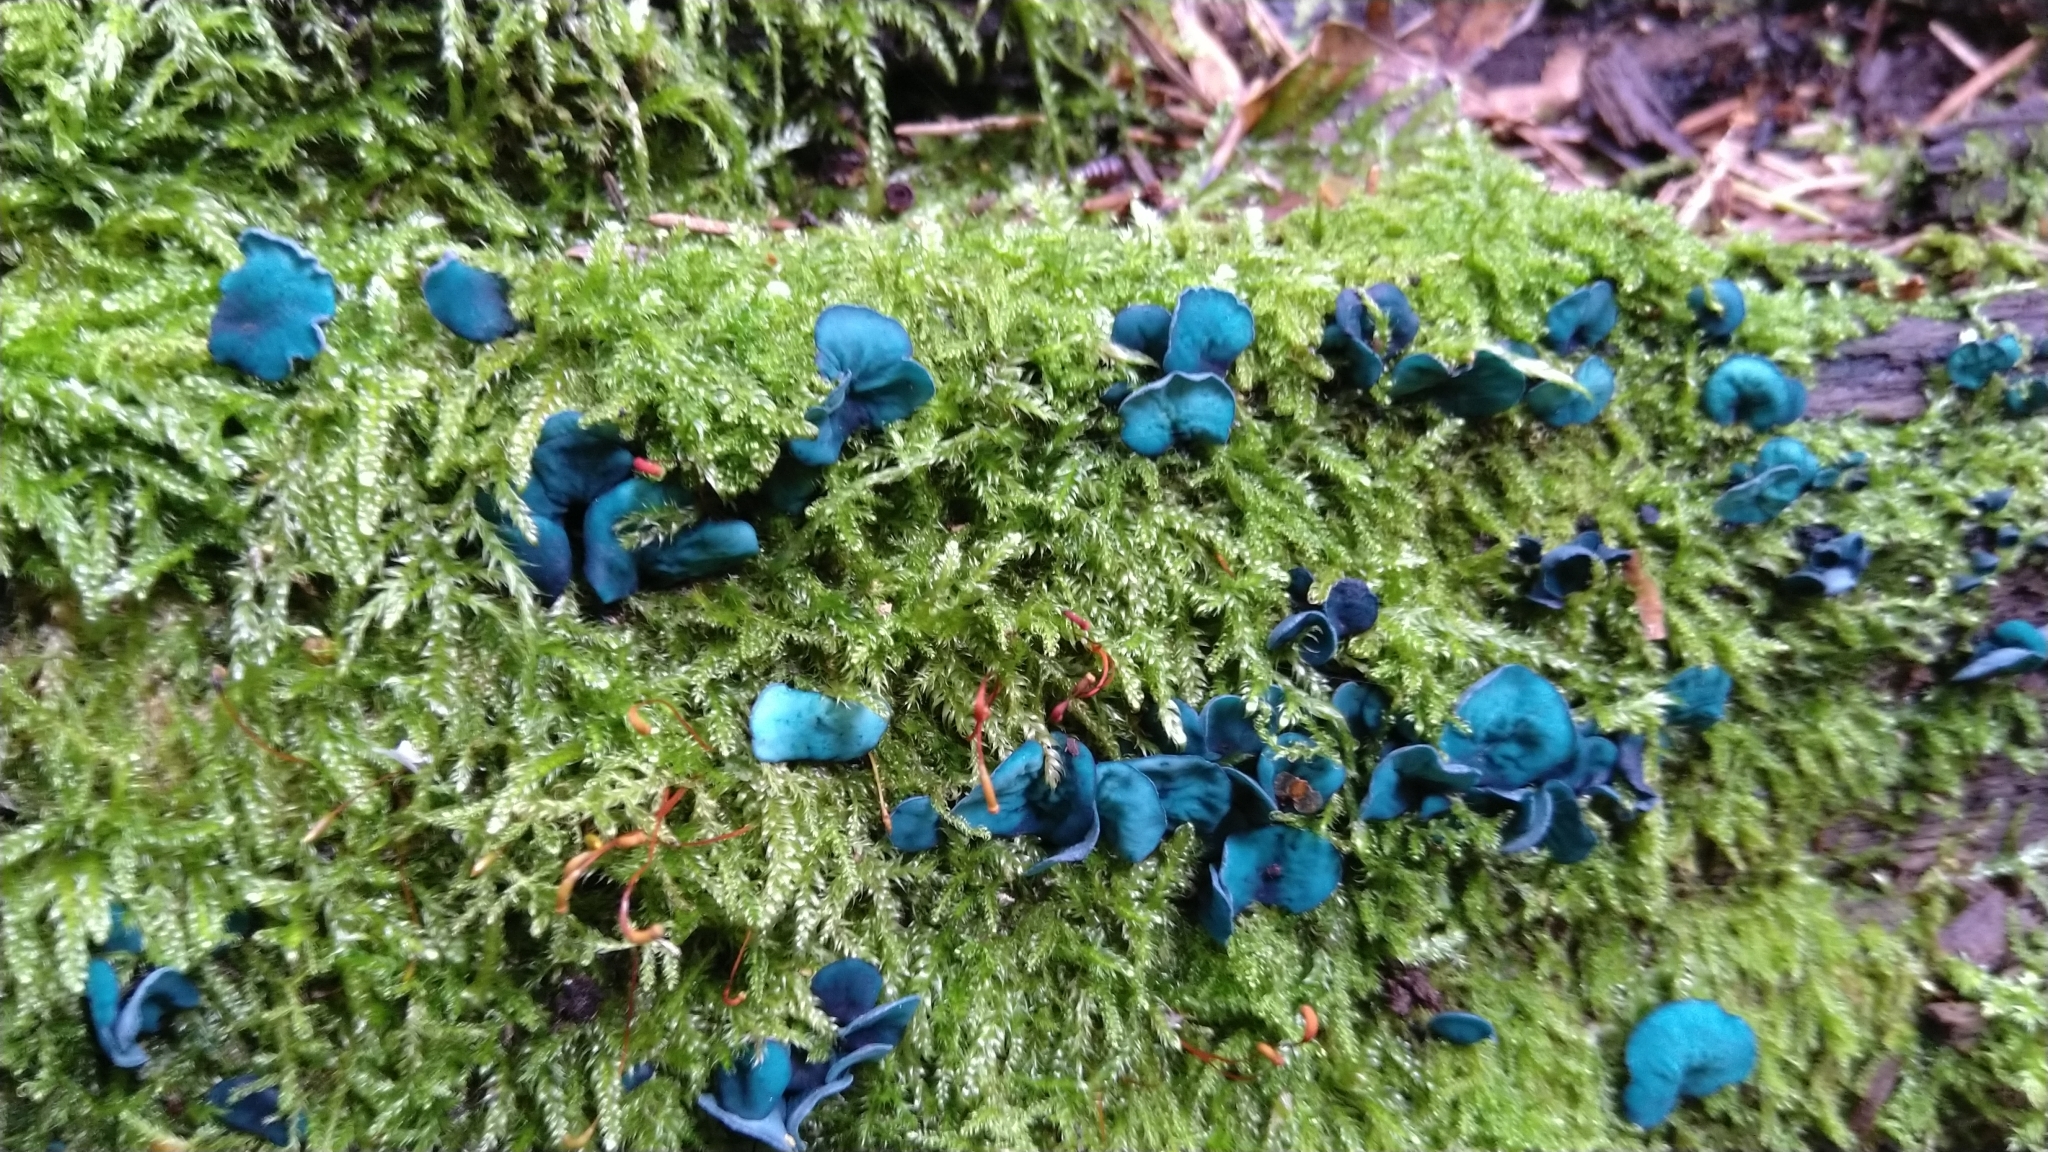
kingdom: Fungi
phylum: Ascomycota
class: Leotiomycetes
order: Helotiales
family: Chlorociboriaceae
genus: Chlorociboria
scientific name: Chlorociboria aeruginascens
